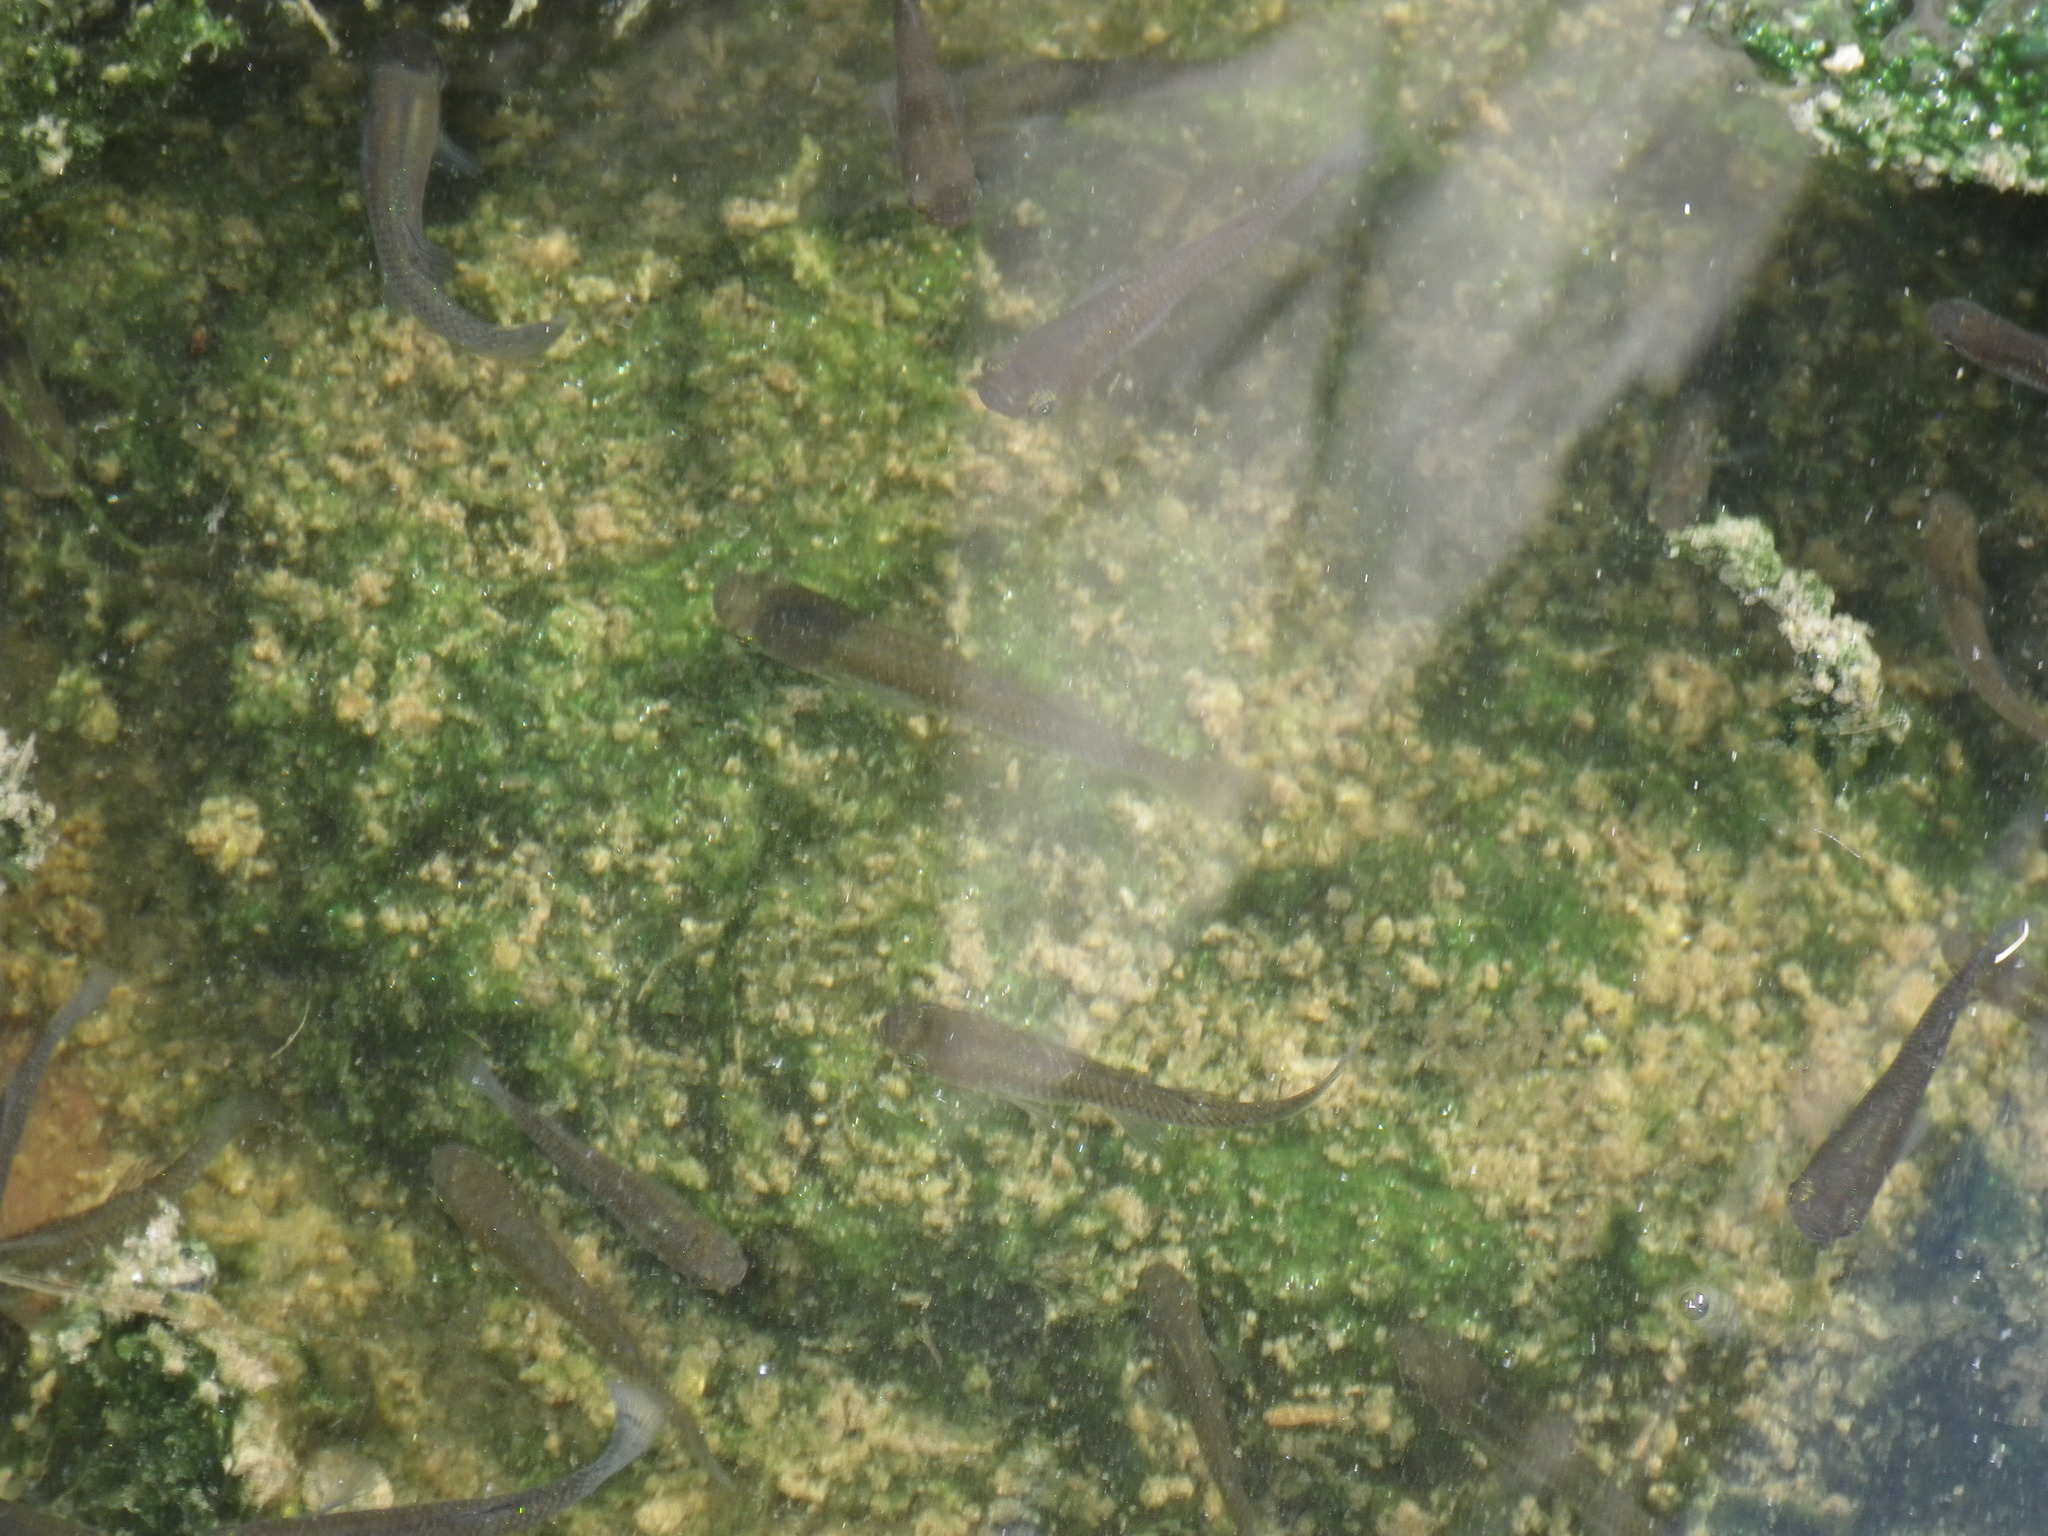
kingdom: Animalia
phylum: Chordata
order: Cyprinodontiformes
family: Poeciliidae
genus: Gambusia
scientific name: Gambusia affinis
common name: Mosquitofish
